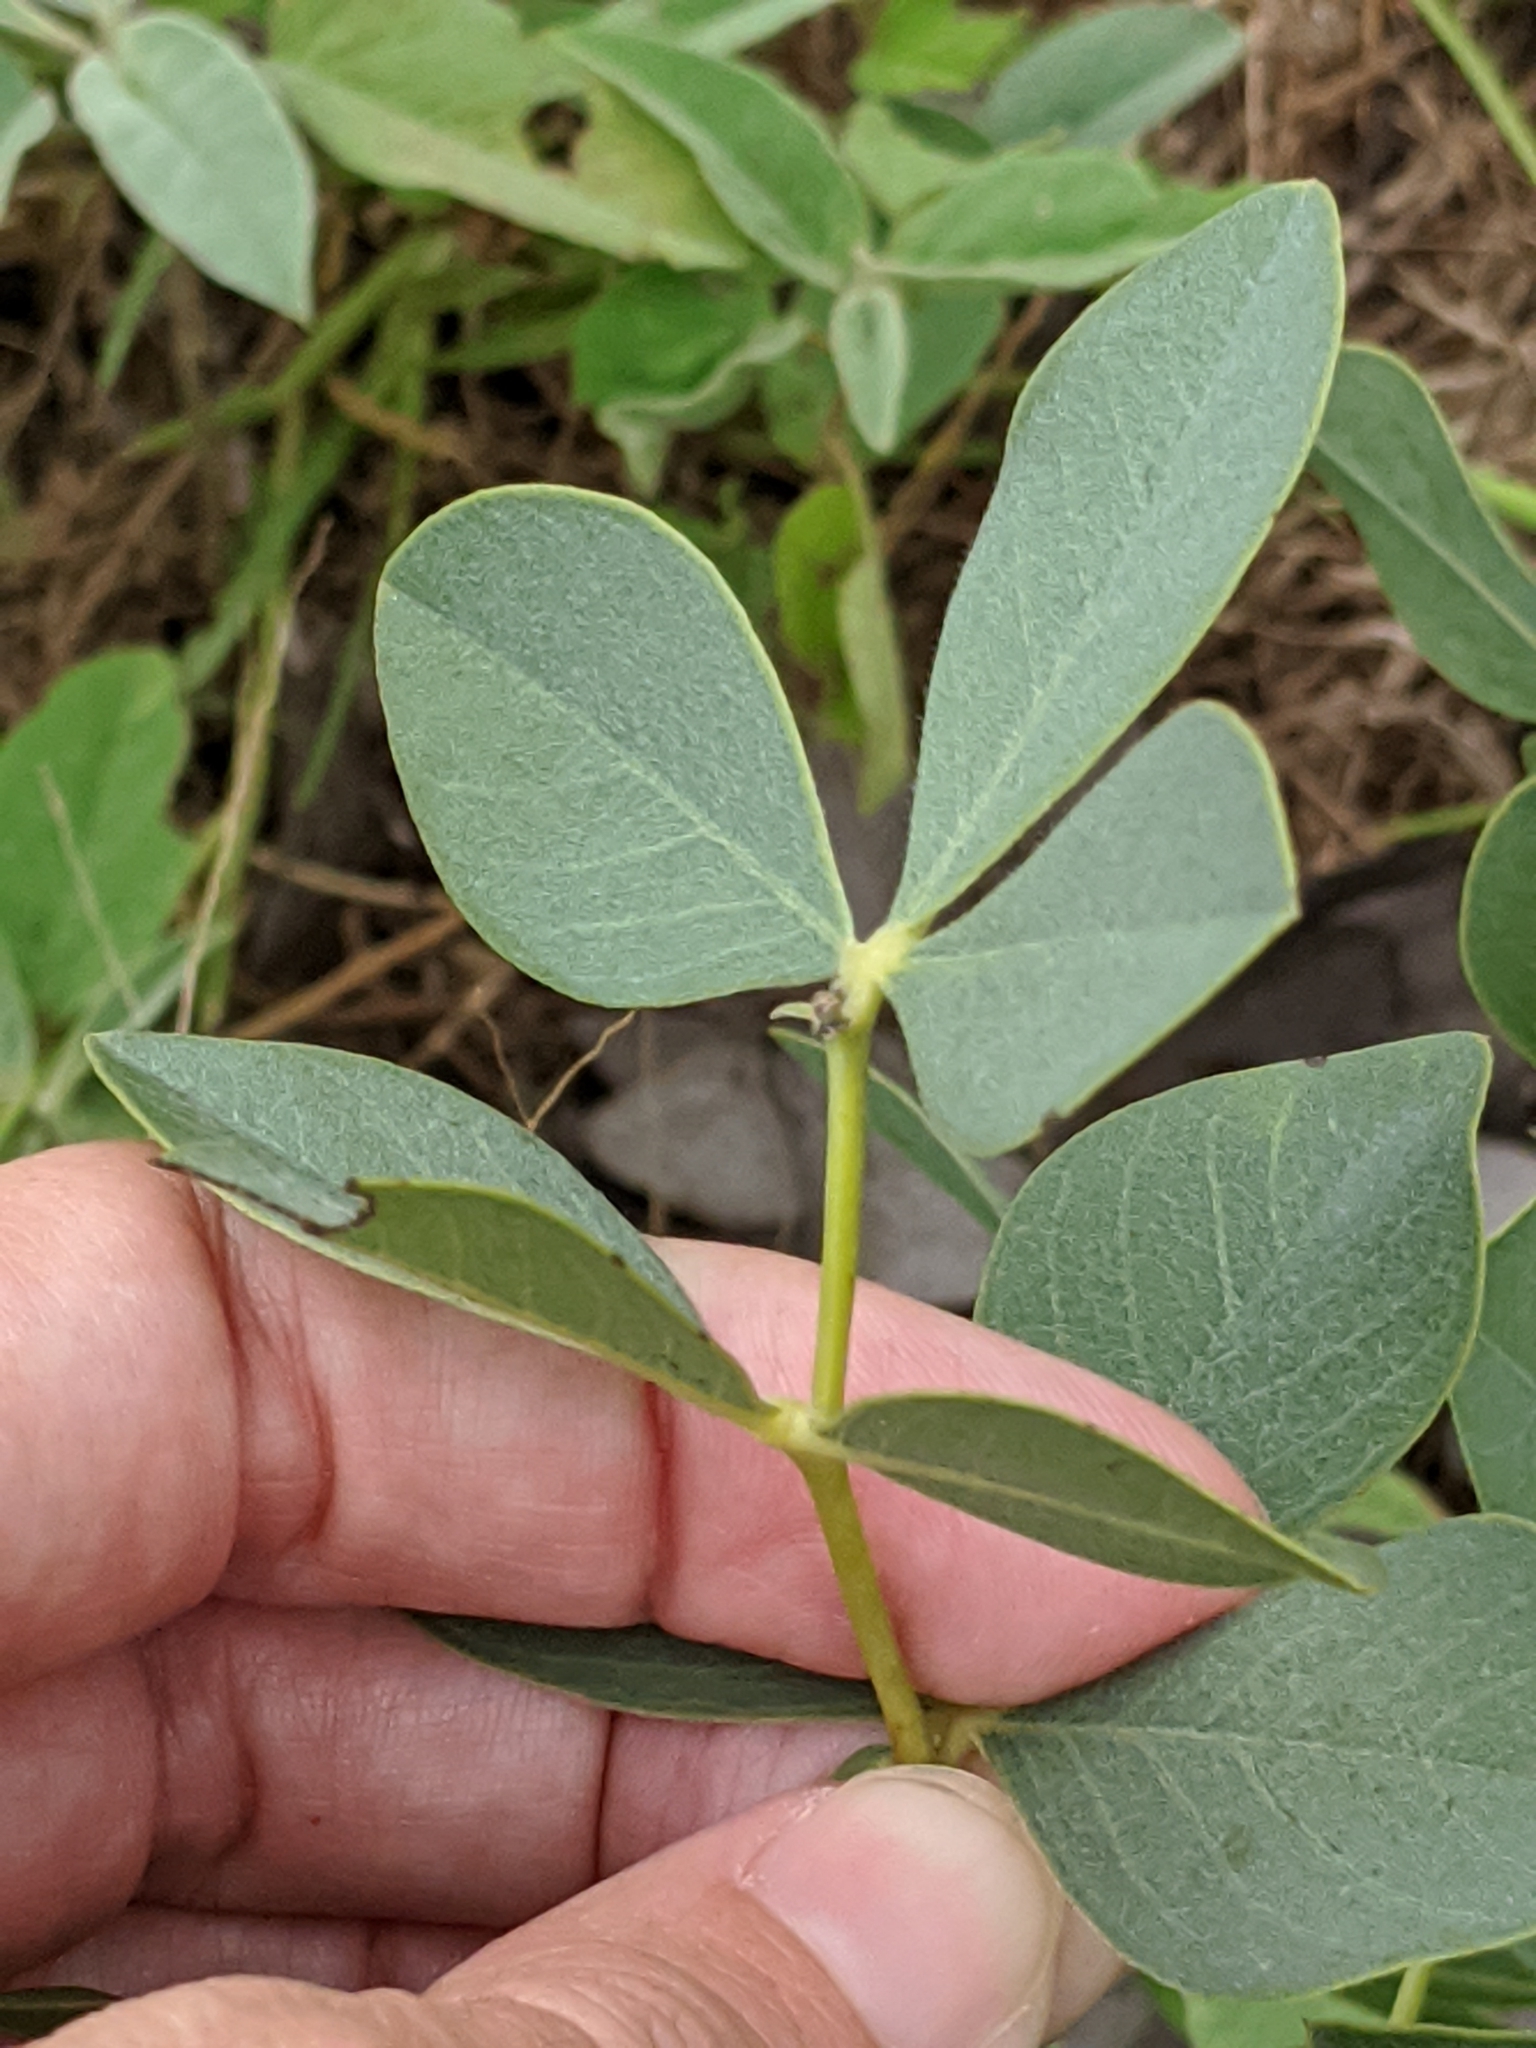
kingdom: Plantae
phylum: Tracheophyta
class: Magnoliopsida
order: Fabales
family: Fabaceae
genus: Baptisia
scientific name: Baptisia bracteata
